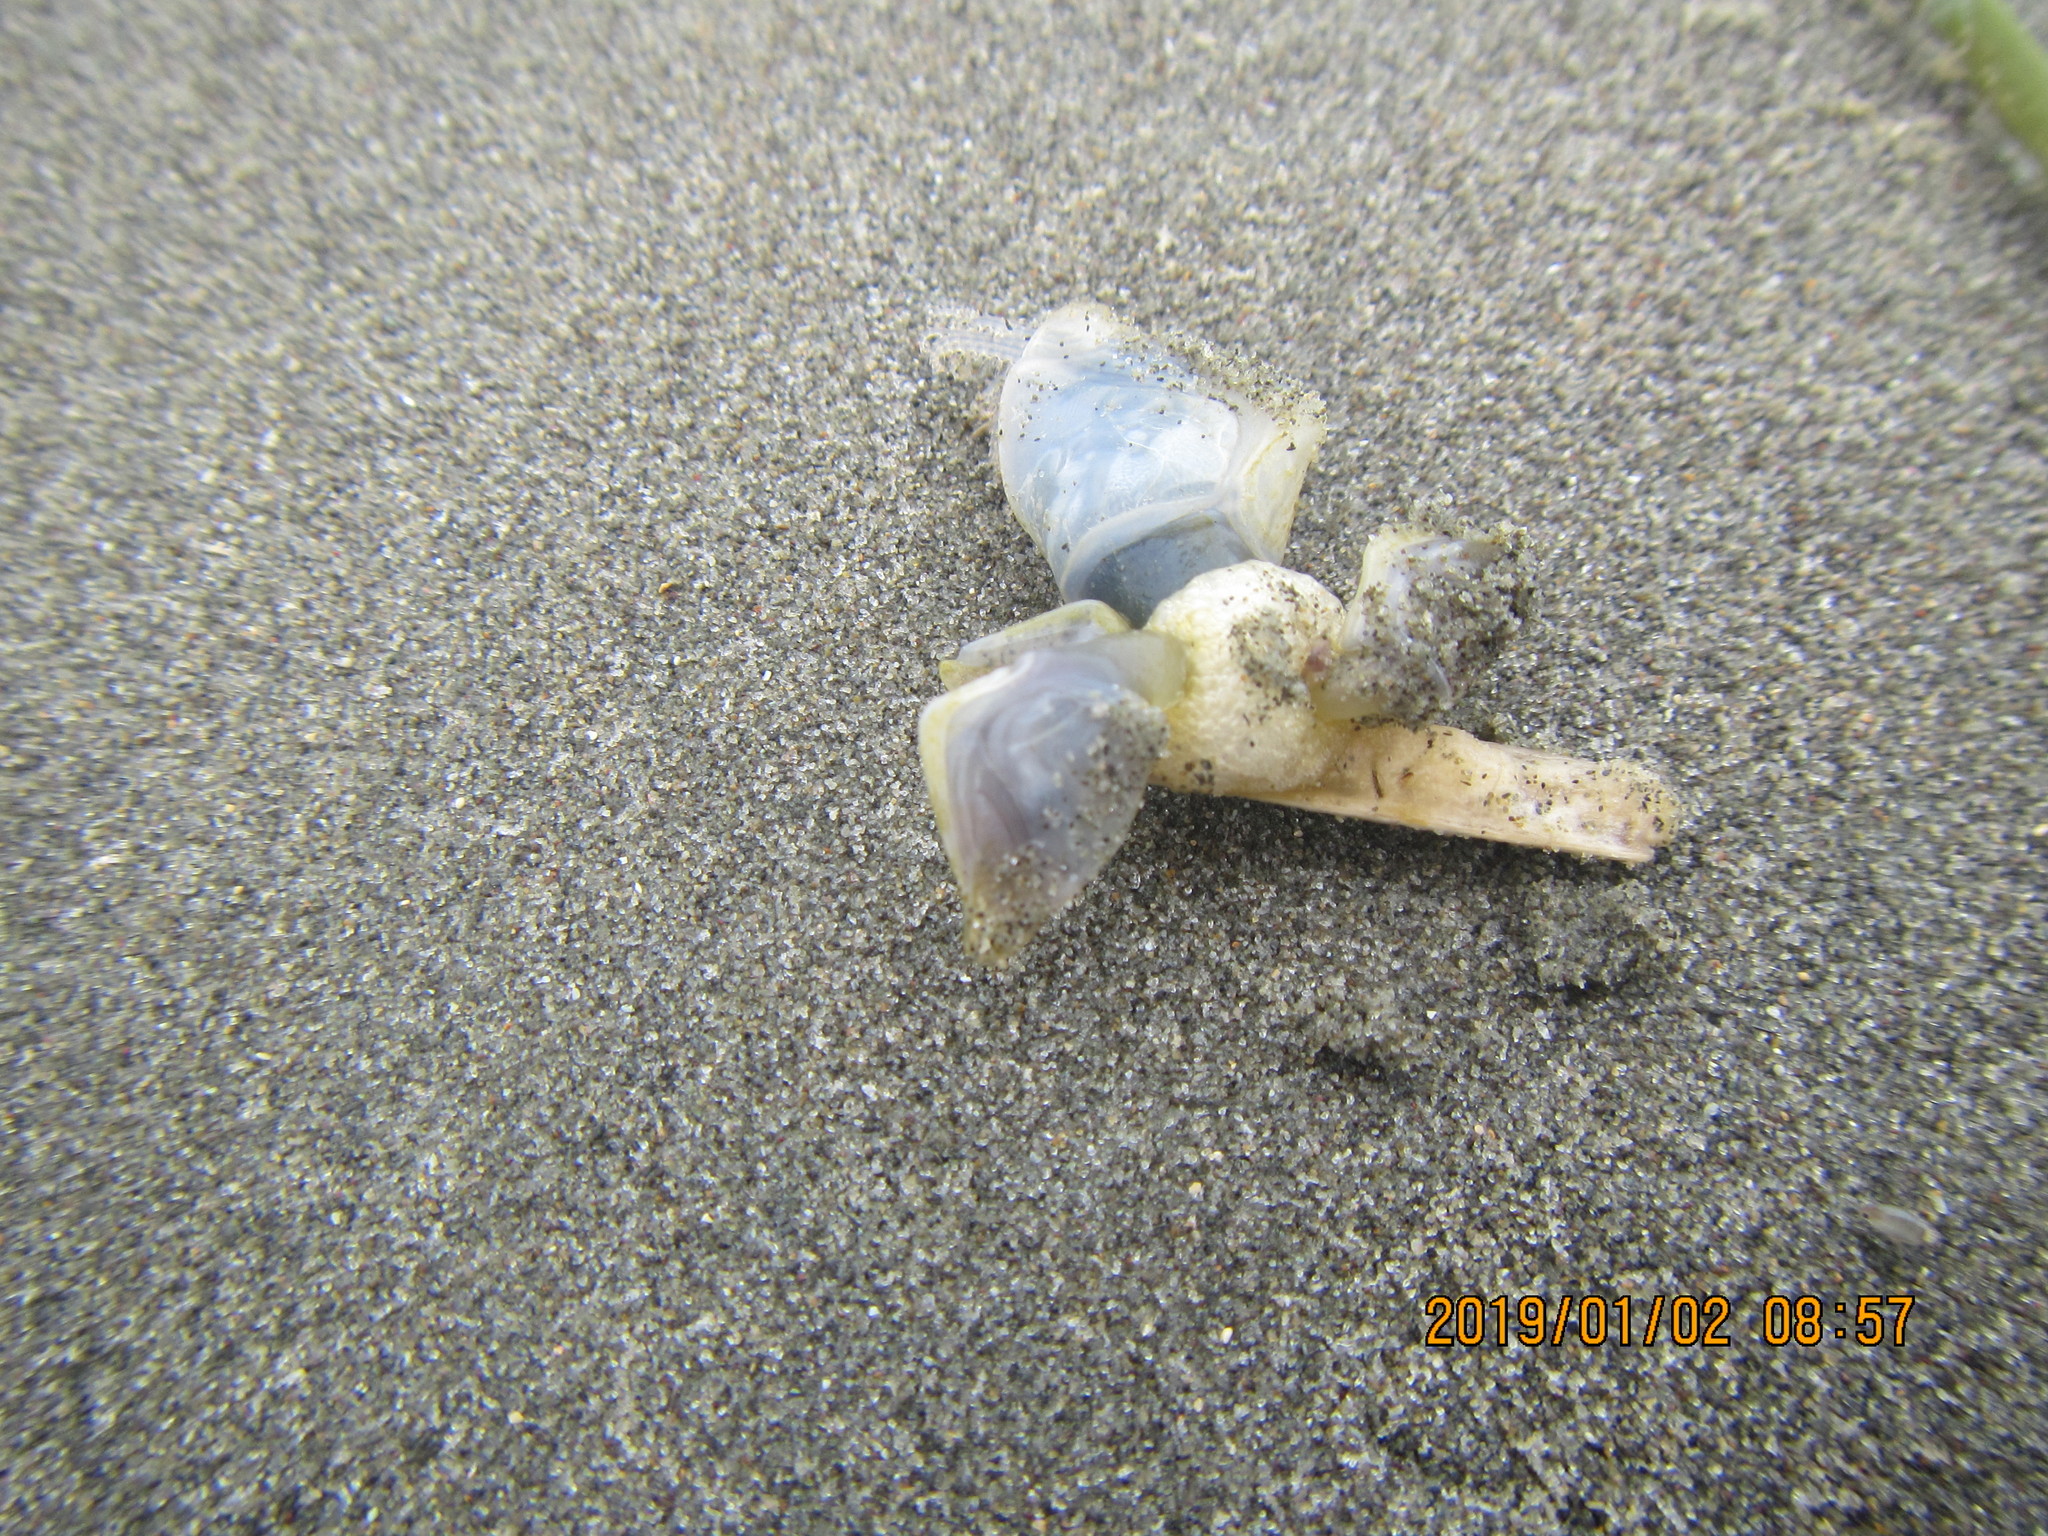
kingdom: Animalia
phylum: Arthropoda
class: Maxillopoda
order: Pedunculata
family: Lepadidae
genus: Dosima
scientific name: Dosima fascicularis
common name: Buoy barnacle
